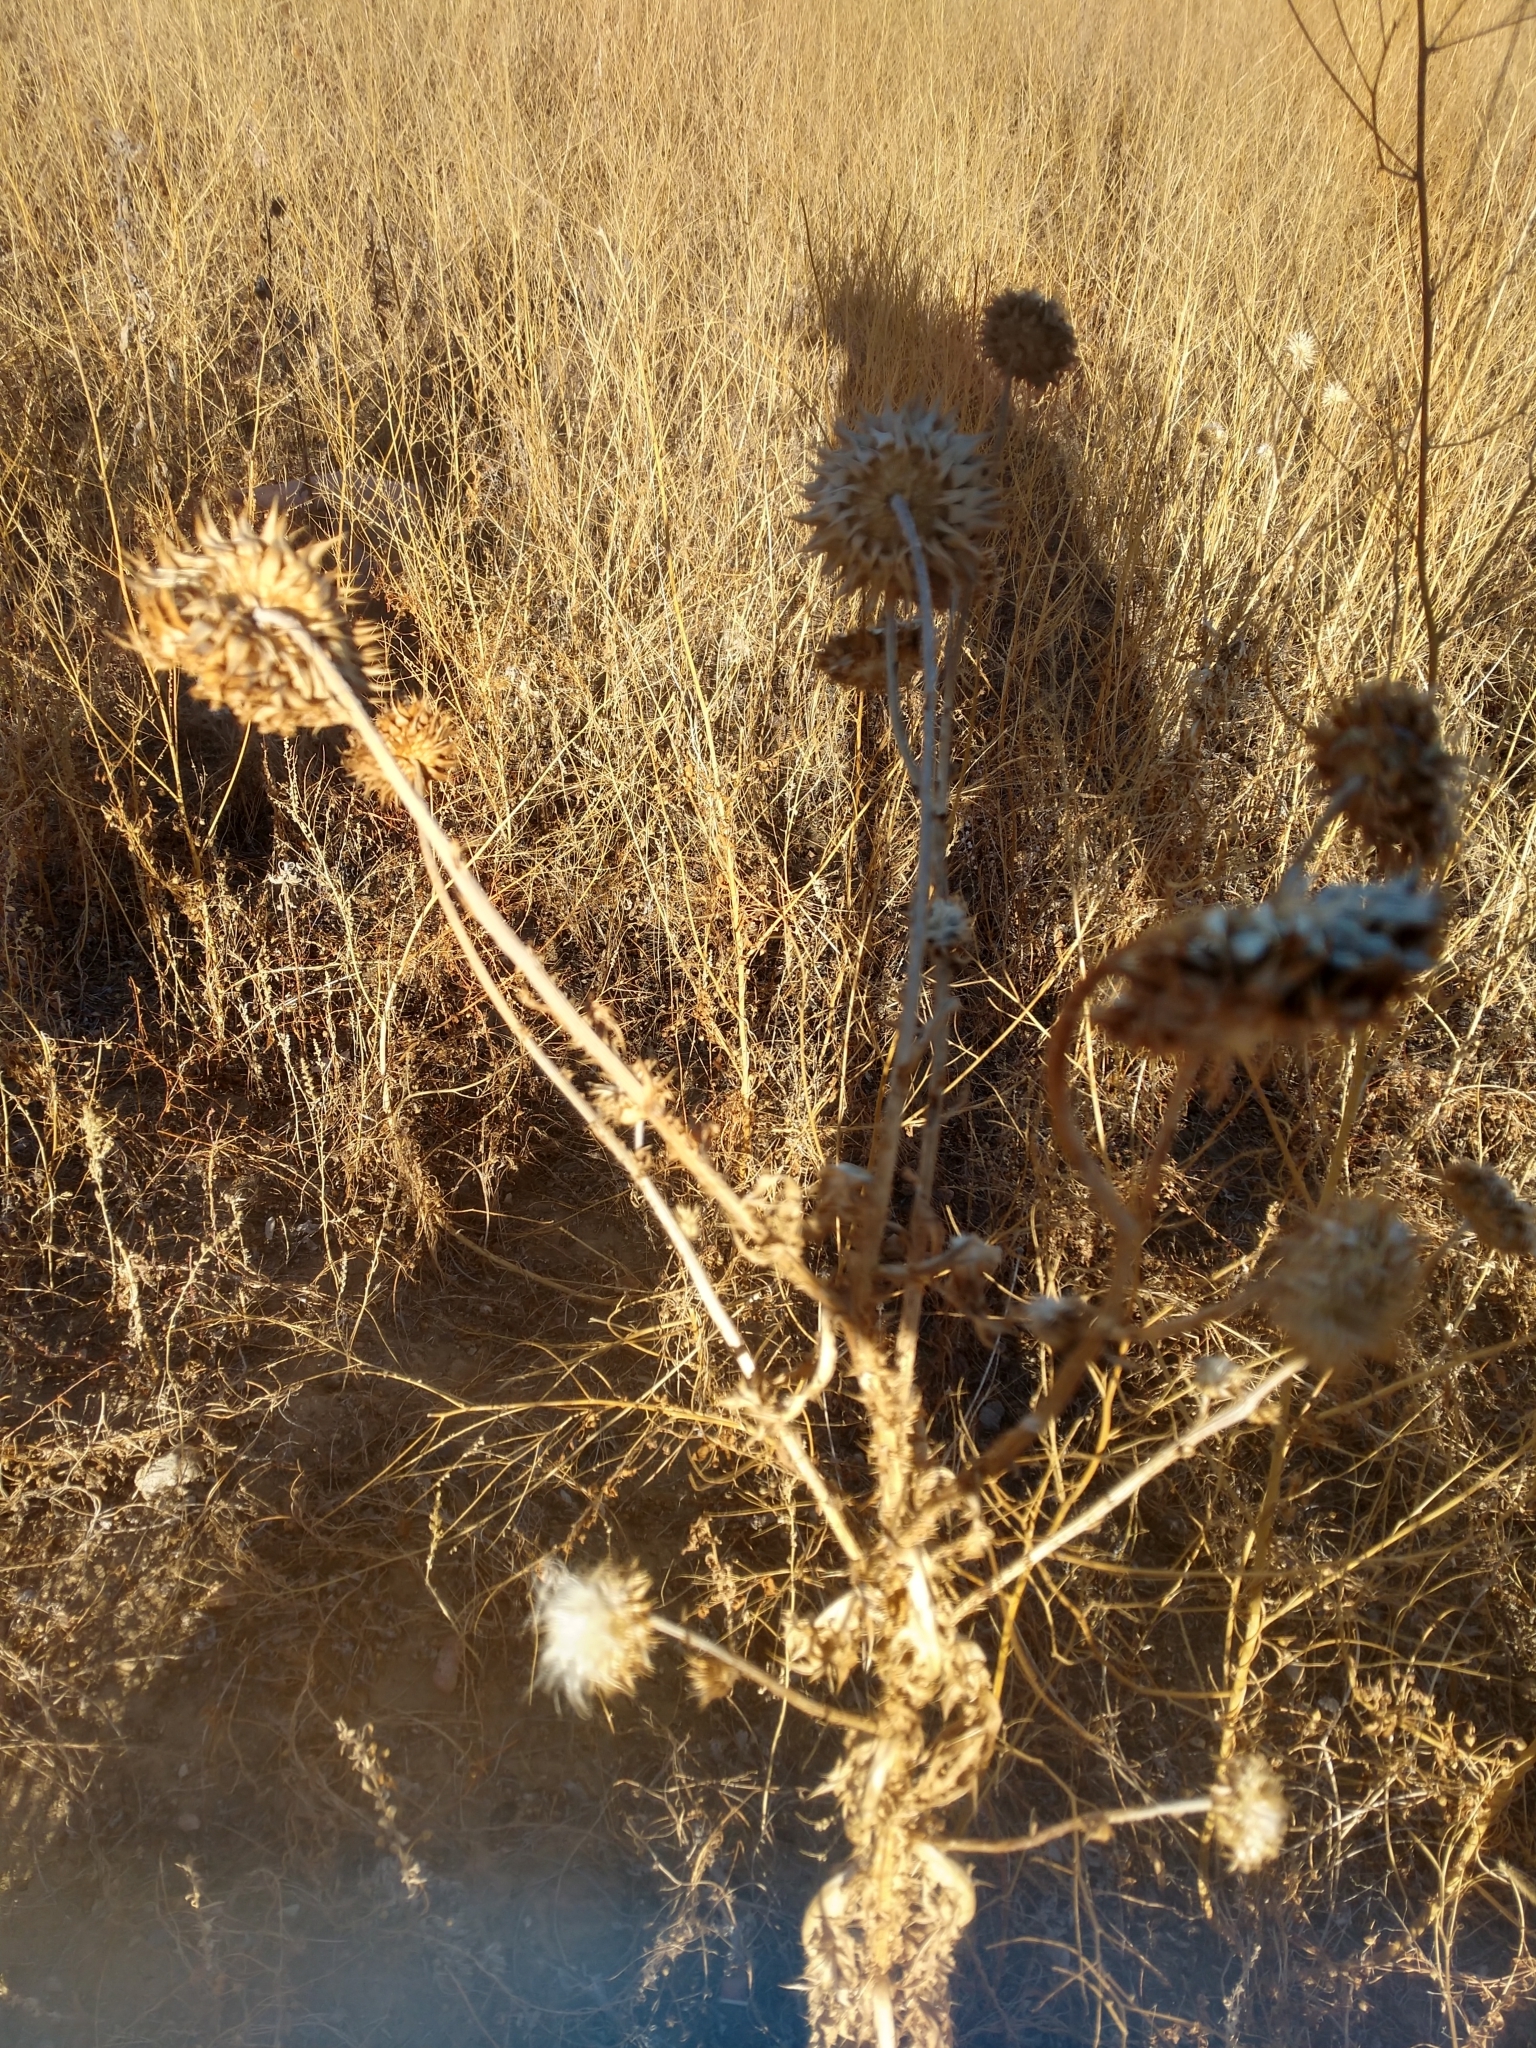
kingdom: Plantae
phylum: Tracheophyta
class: Magnoliopsida
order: Asterales
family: Asteraceae
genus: Carduus
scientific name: Carduus nutans
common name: Musk thistle
